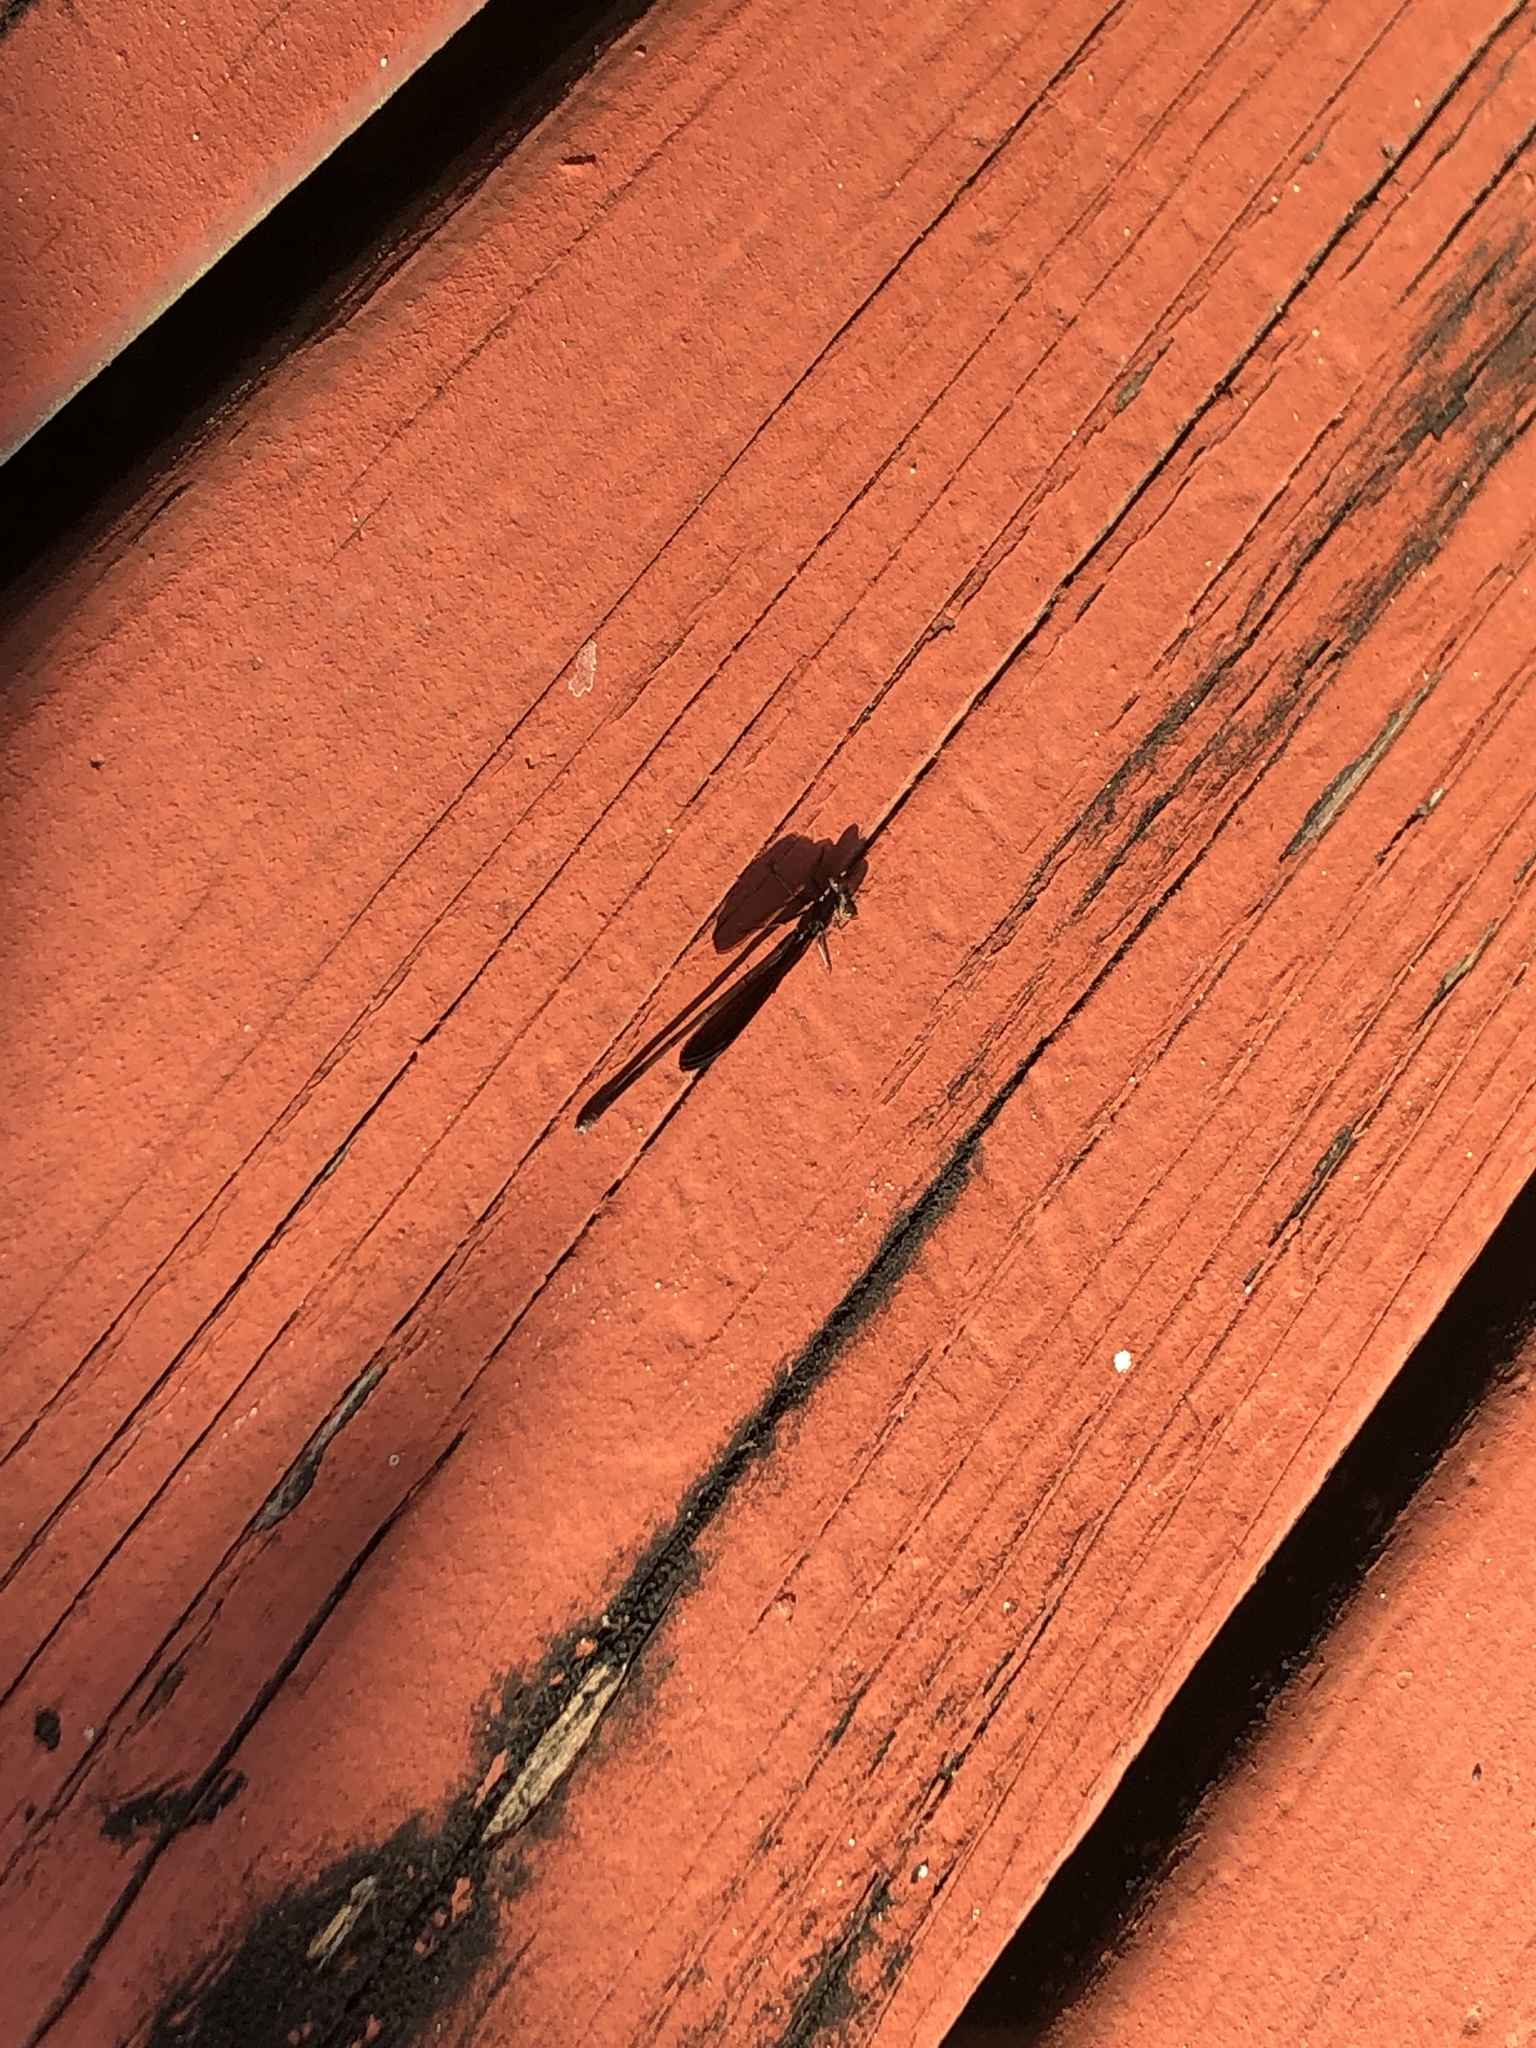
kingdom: Animalia
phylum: Arthropoda
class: Insecta
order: Odonata
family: Coenagrionidae
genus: Argia
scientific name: Argia fumipennis
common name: Variable dancer
